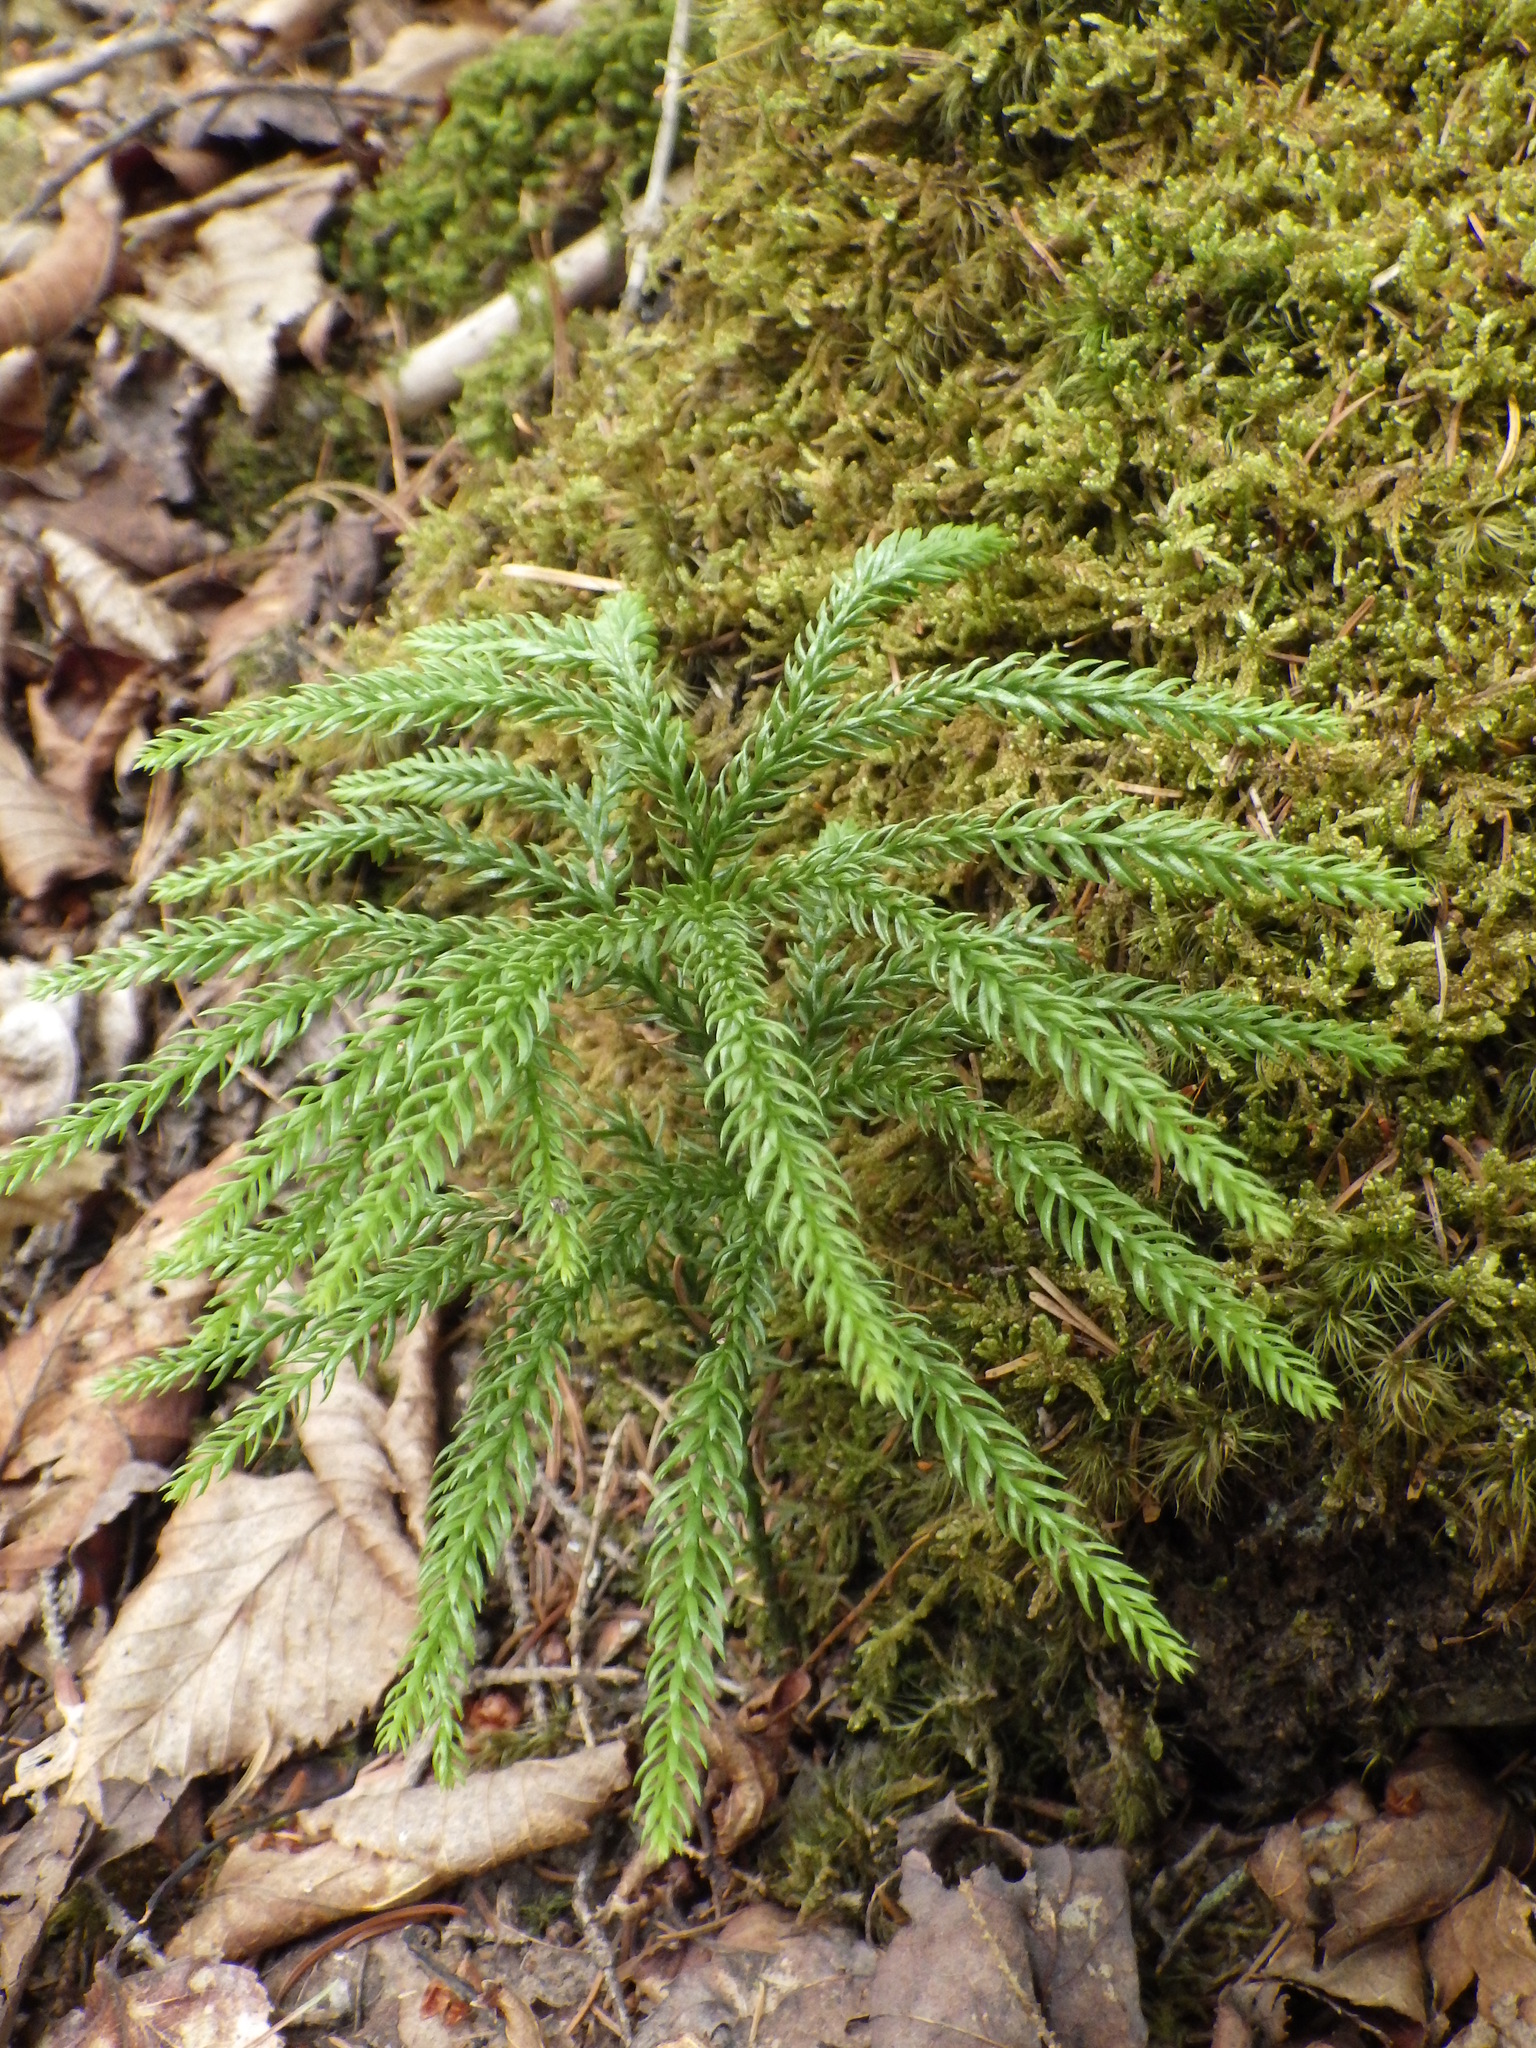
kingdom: Plantae
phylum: Tracheophyta
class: Lycopodiopsida
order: Lycopodiales
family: Lycopodiaceae
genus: Dendrolycopodium
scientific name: Dendrolycopodium dendroideum
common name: Northern tree-clubmoss
